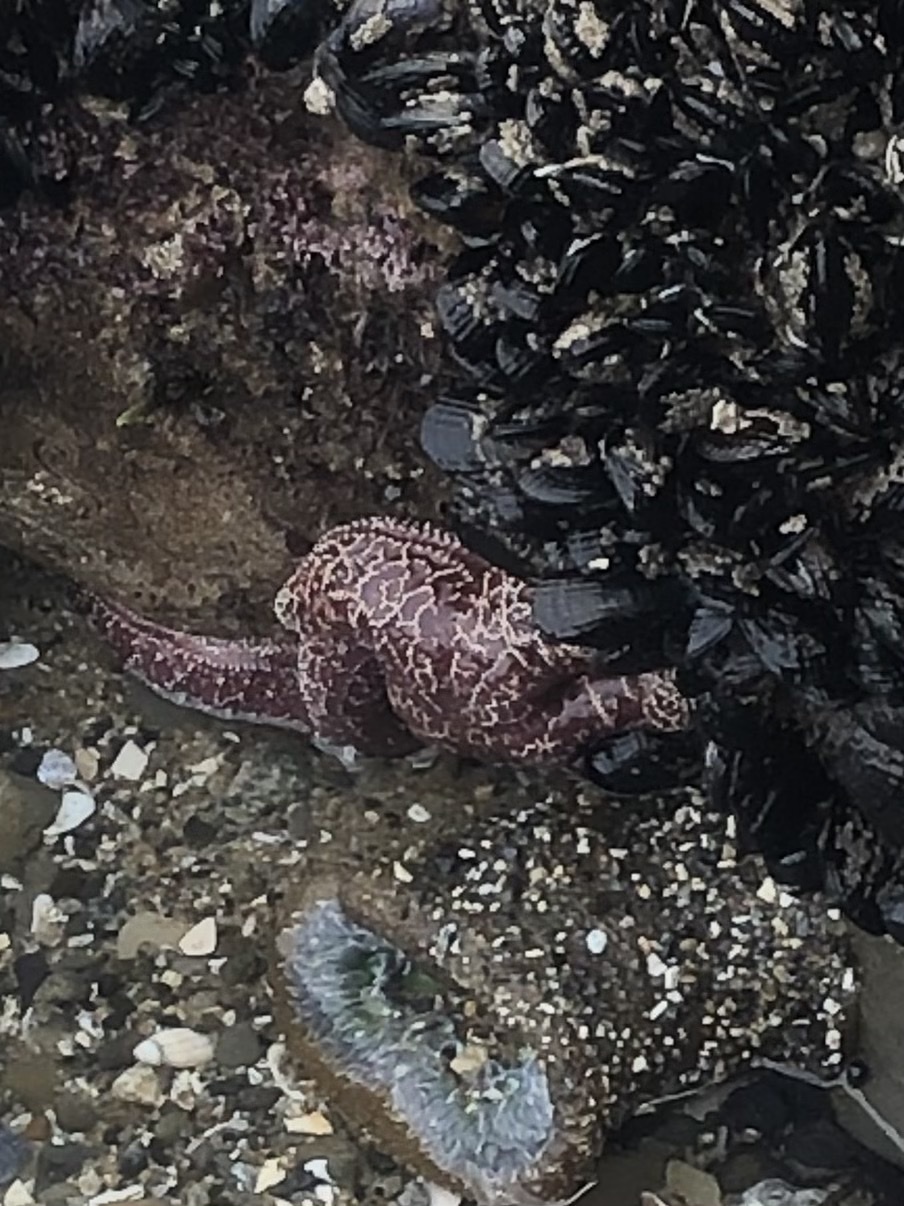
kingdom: Animalia
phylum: Echinodermata
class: Asteroidea
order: Forcipulatida
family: Asteriidae
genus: Pisaster
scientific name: Pisaster ochraceus
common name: Ochre stars
